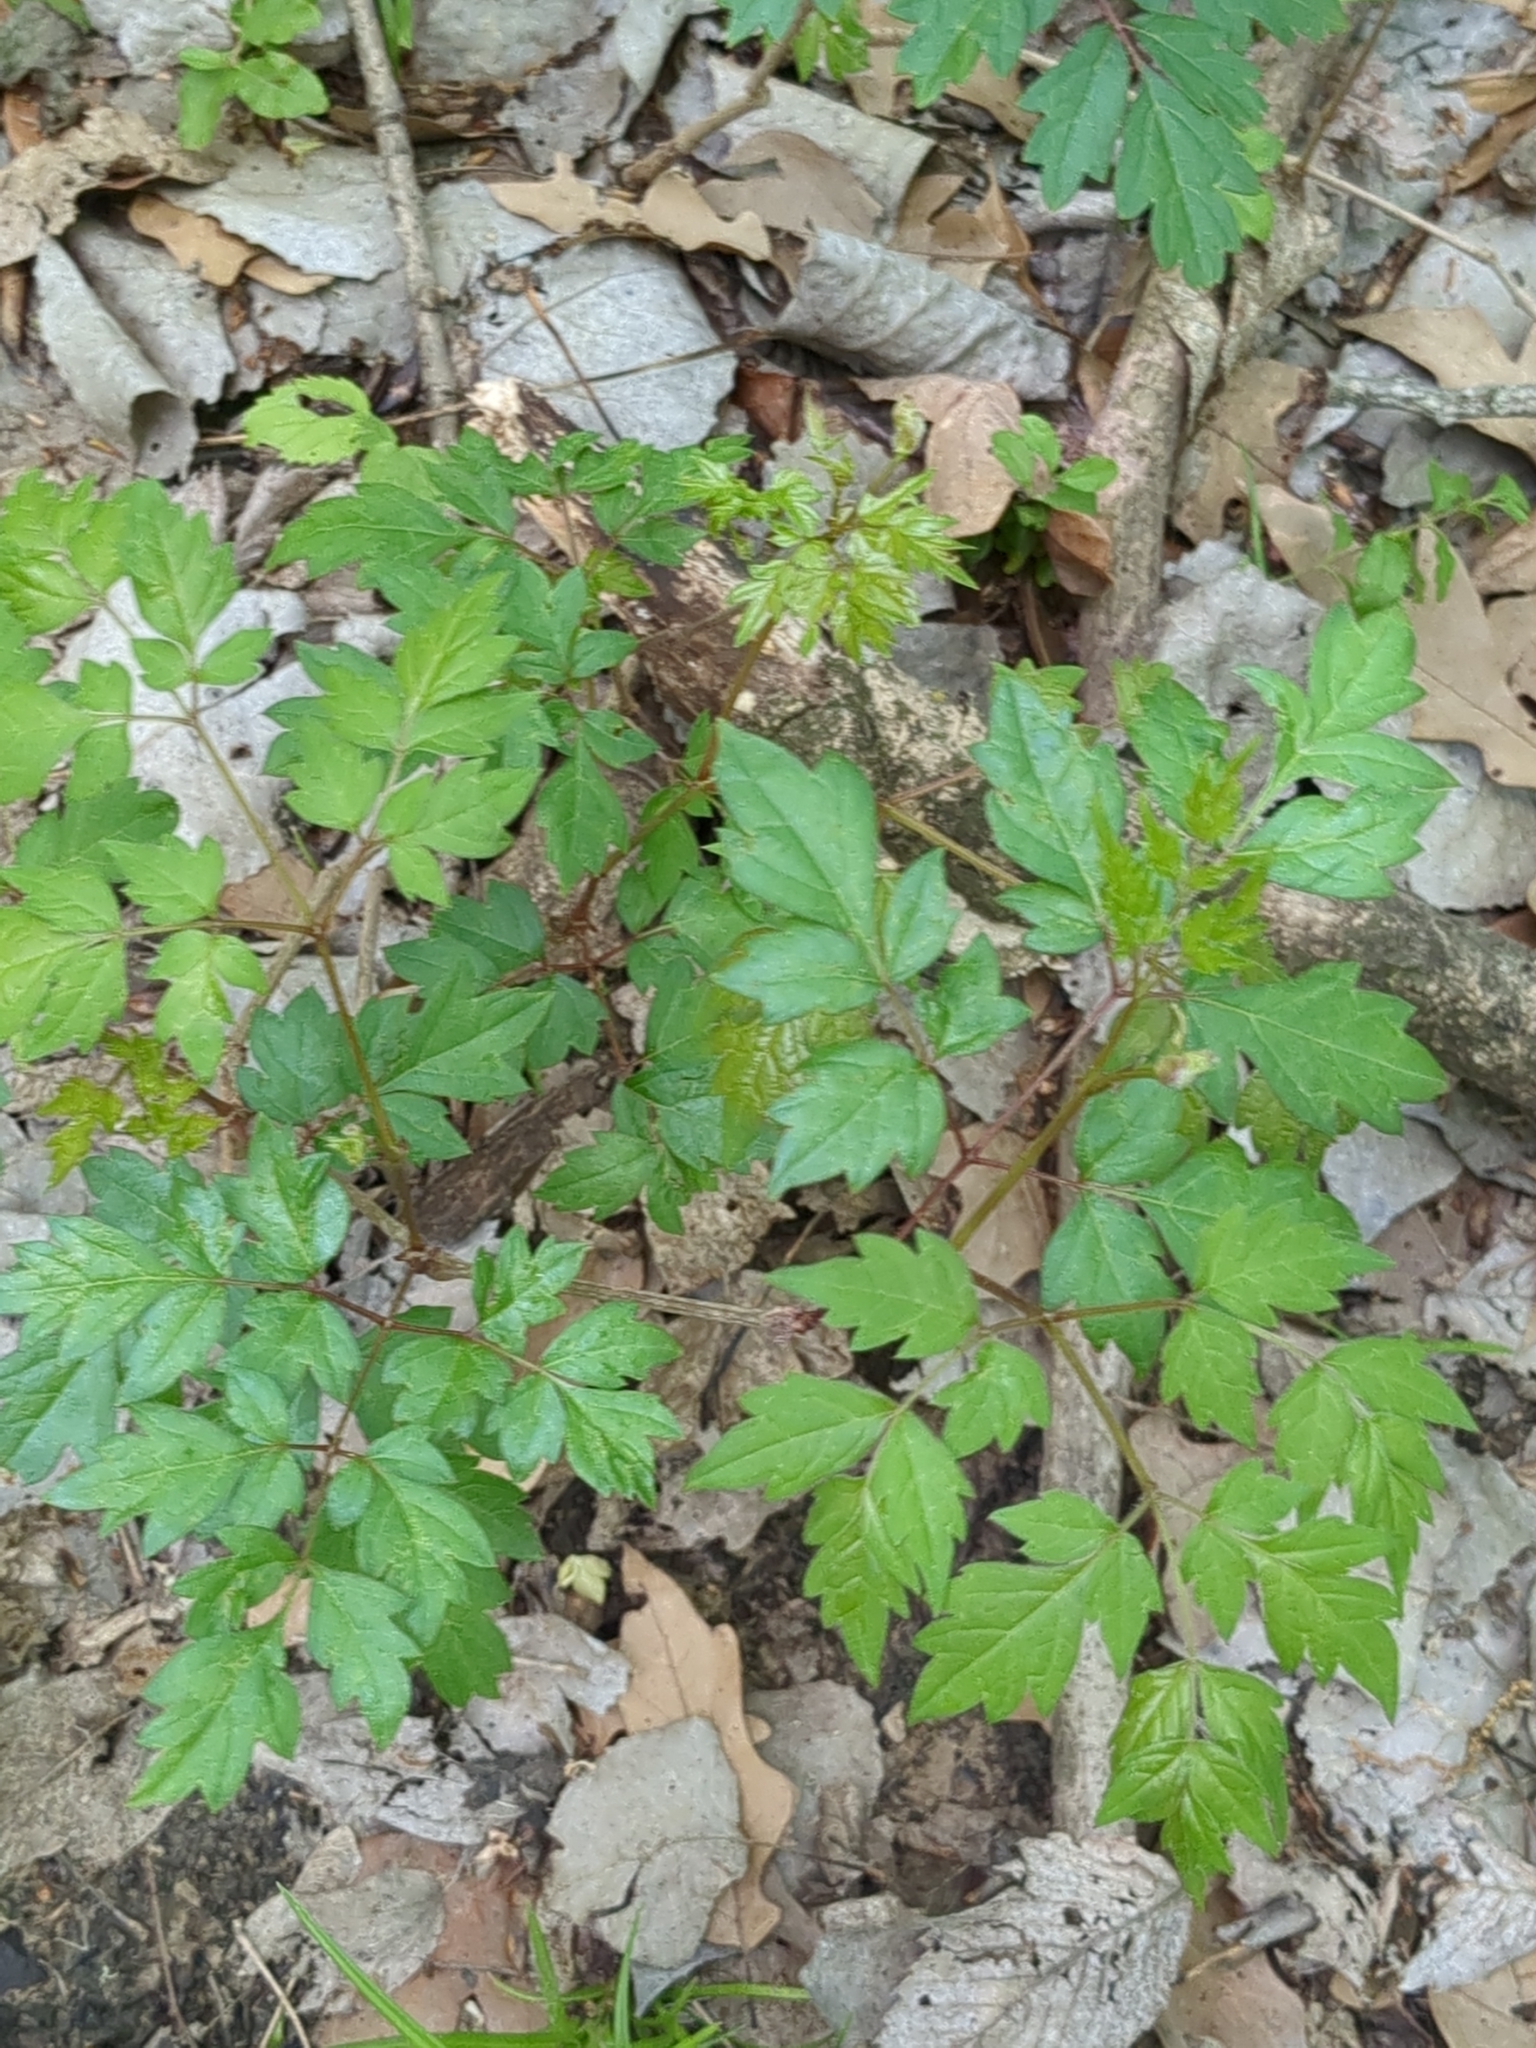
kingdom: Plantae
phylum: Tracheophyta
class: Magnoliopsida
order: Vitales
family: Vitaceae
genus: Nekemias
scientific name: Nekemias arborea
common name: Peppervine
